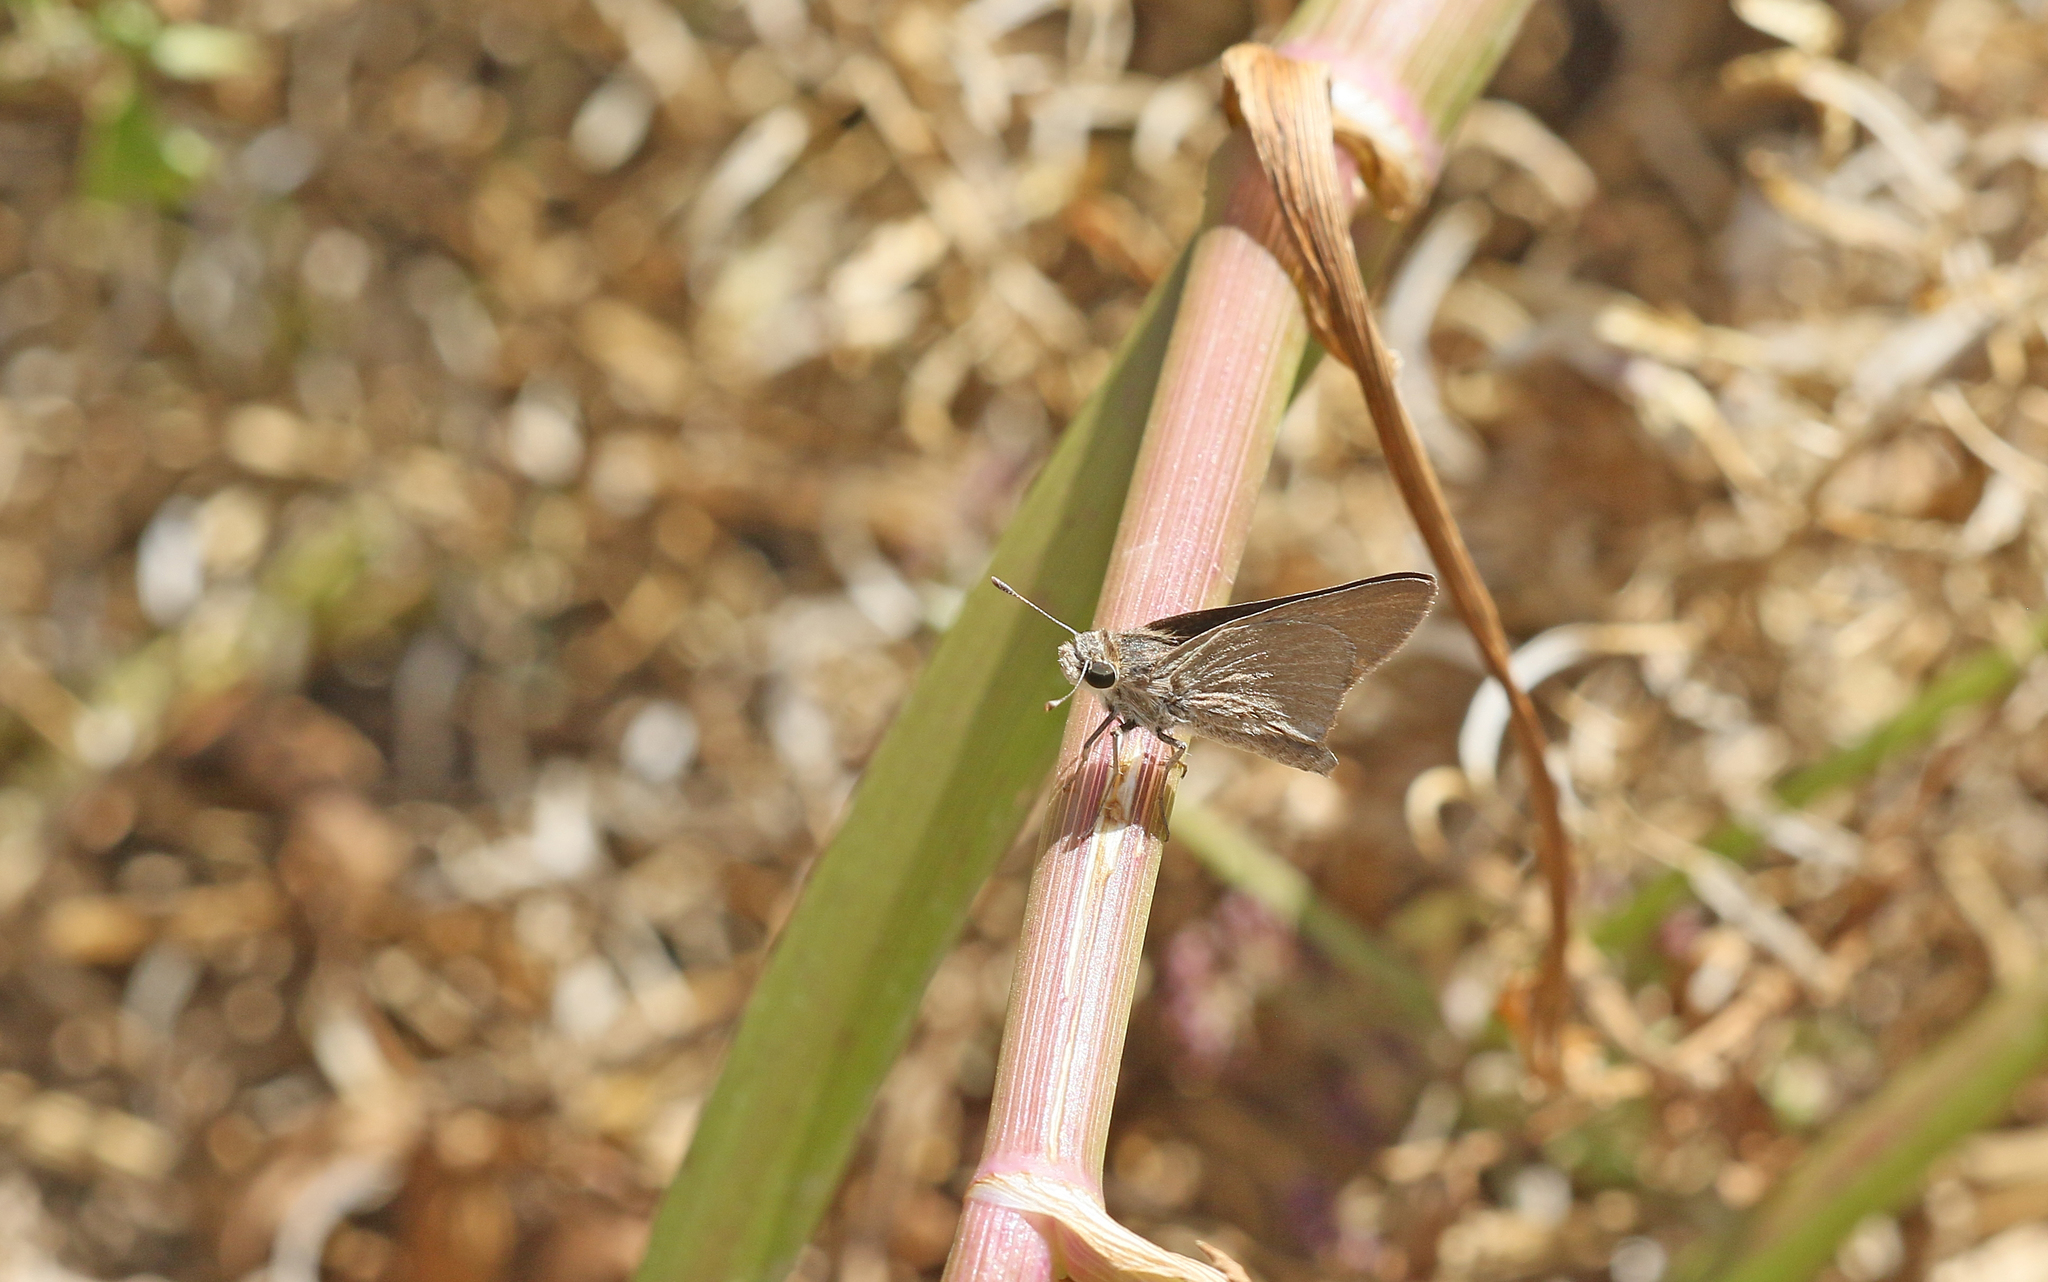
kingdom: Animalia
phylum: Arthropoda
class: Insecta
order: Lepidoptera
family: Hesperiidae
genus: Gegenes
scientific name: Gegenes nostrodamus
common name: Mediterranean skipper
